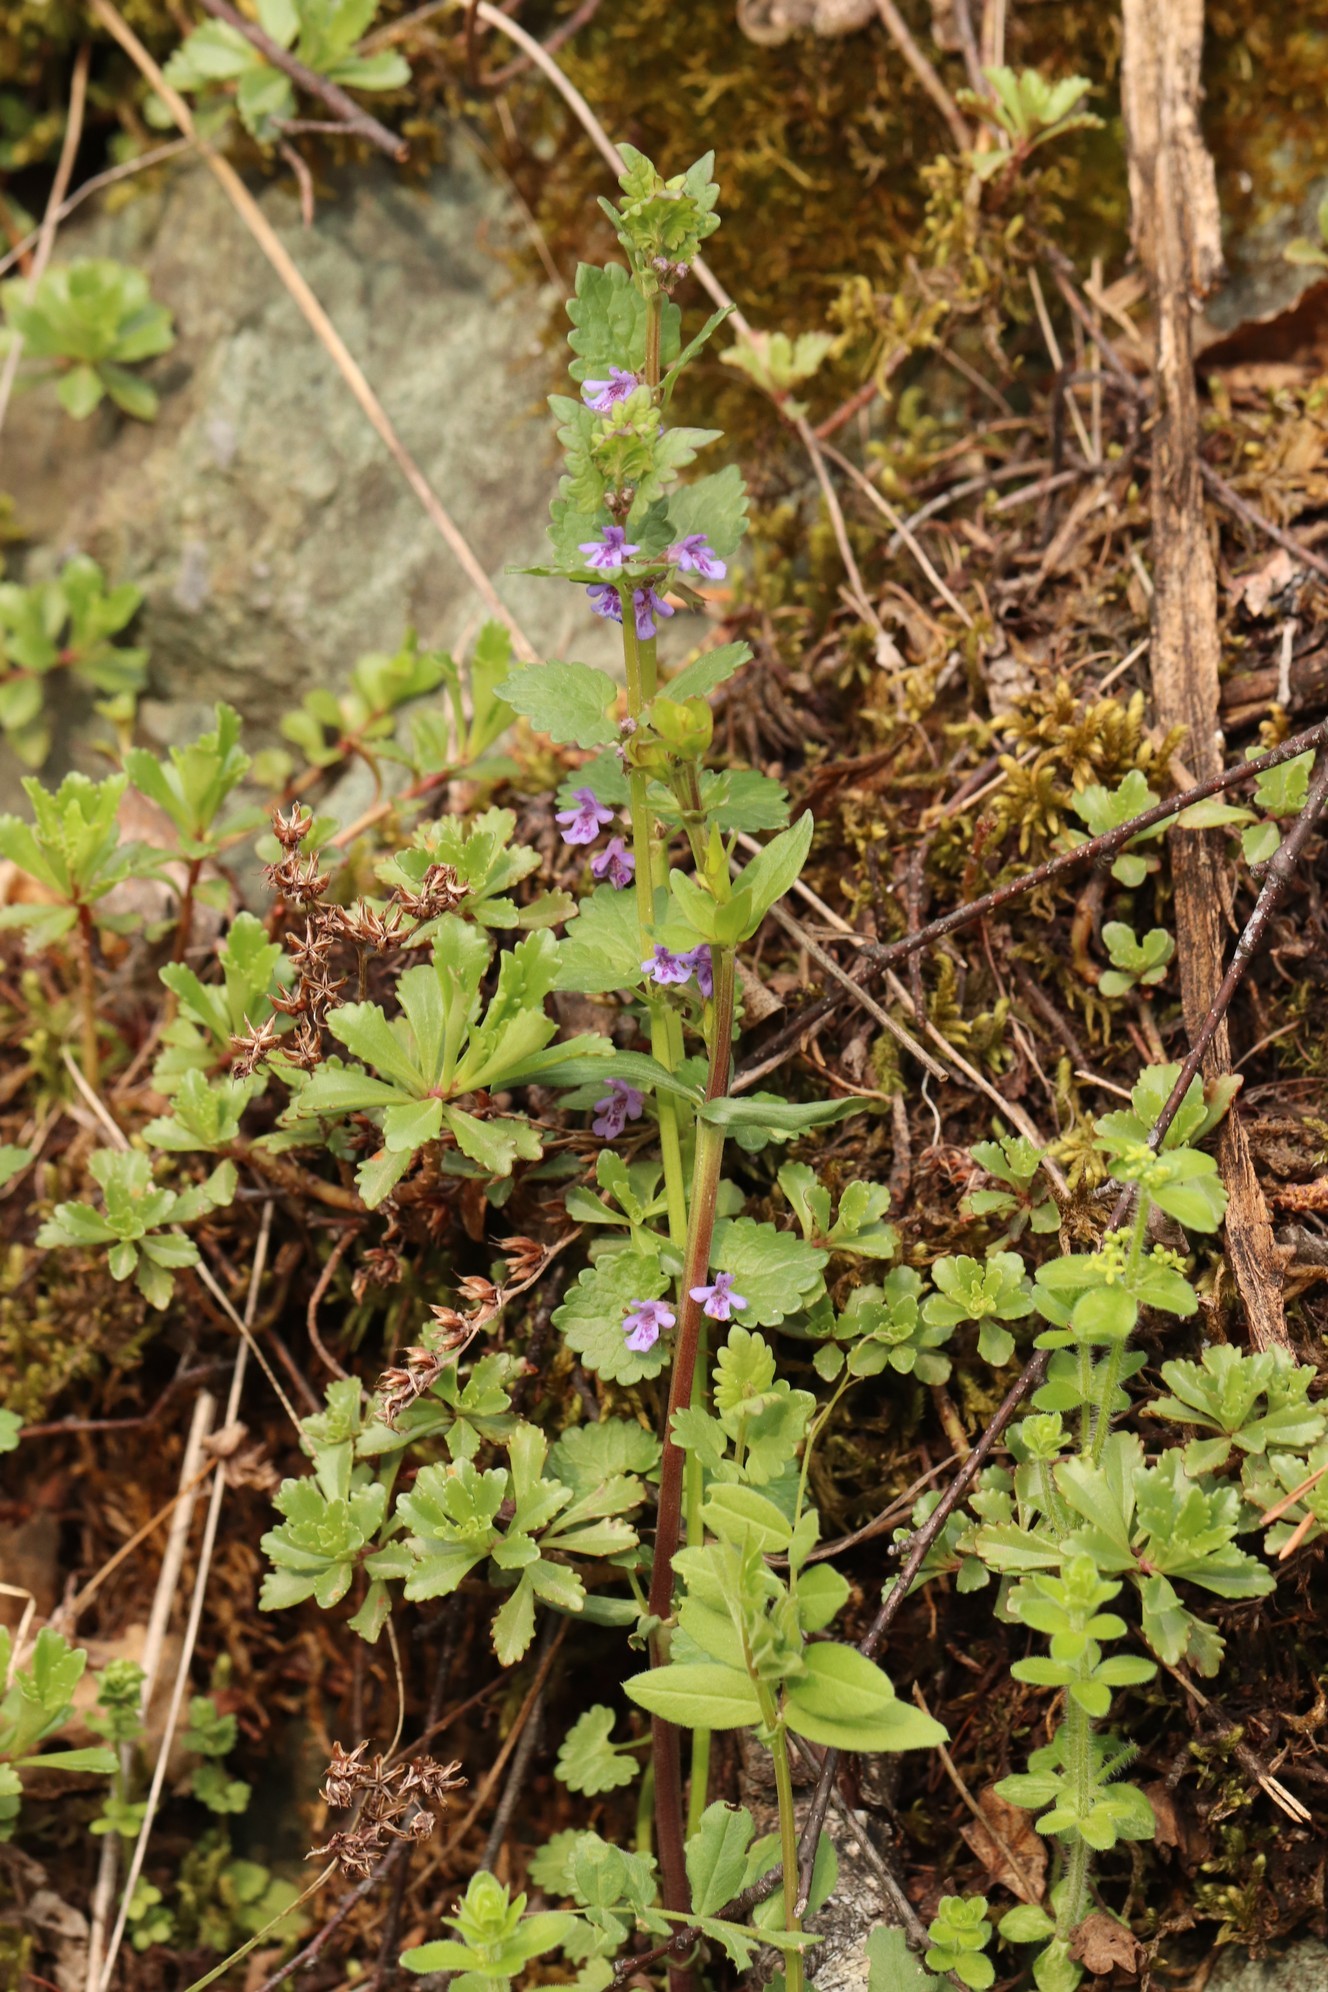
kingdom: Plantae
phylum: Tracheophyta
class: Magnoliopsida
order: Lamiales
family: Lamiaceae
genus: Glechoma
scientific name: Glechoma hederacea
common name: Ground ivy
